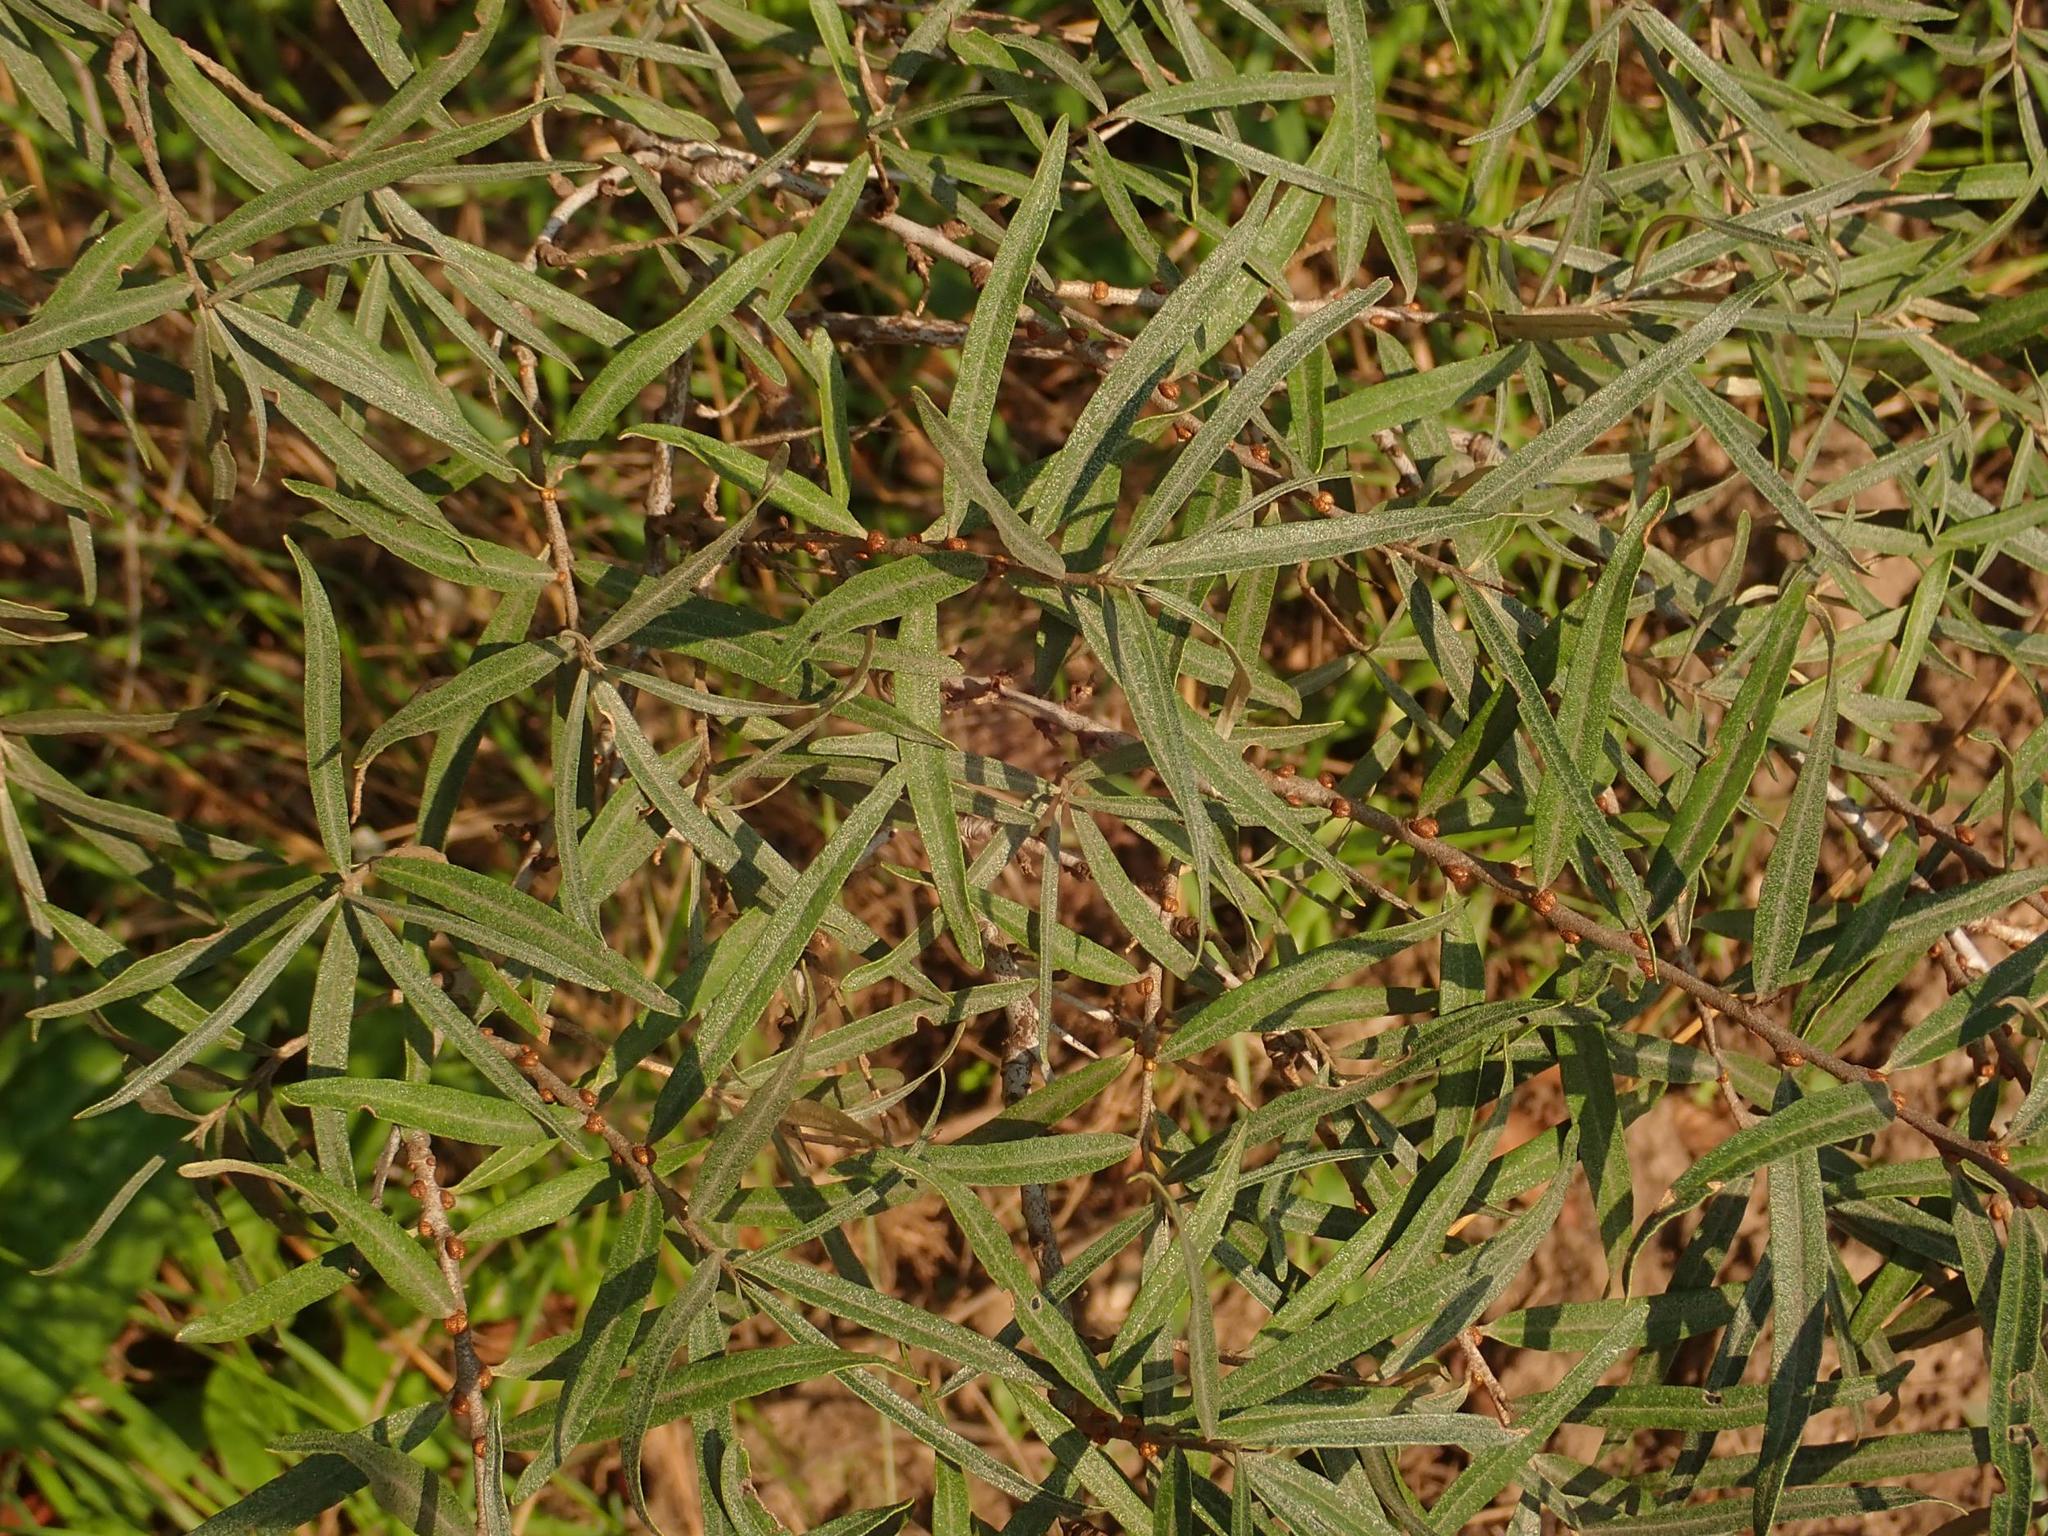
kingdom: Plantae
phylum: Tracheophyta
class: Magnoliopsida
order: Rosales
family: Elaeagnaceae
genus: Hippophae
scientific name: Hippophae rhamnoides
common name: Sea-buckthorn
